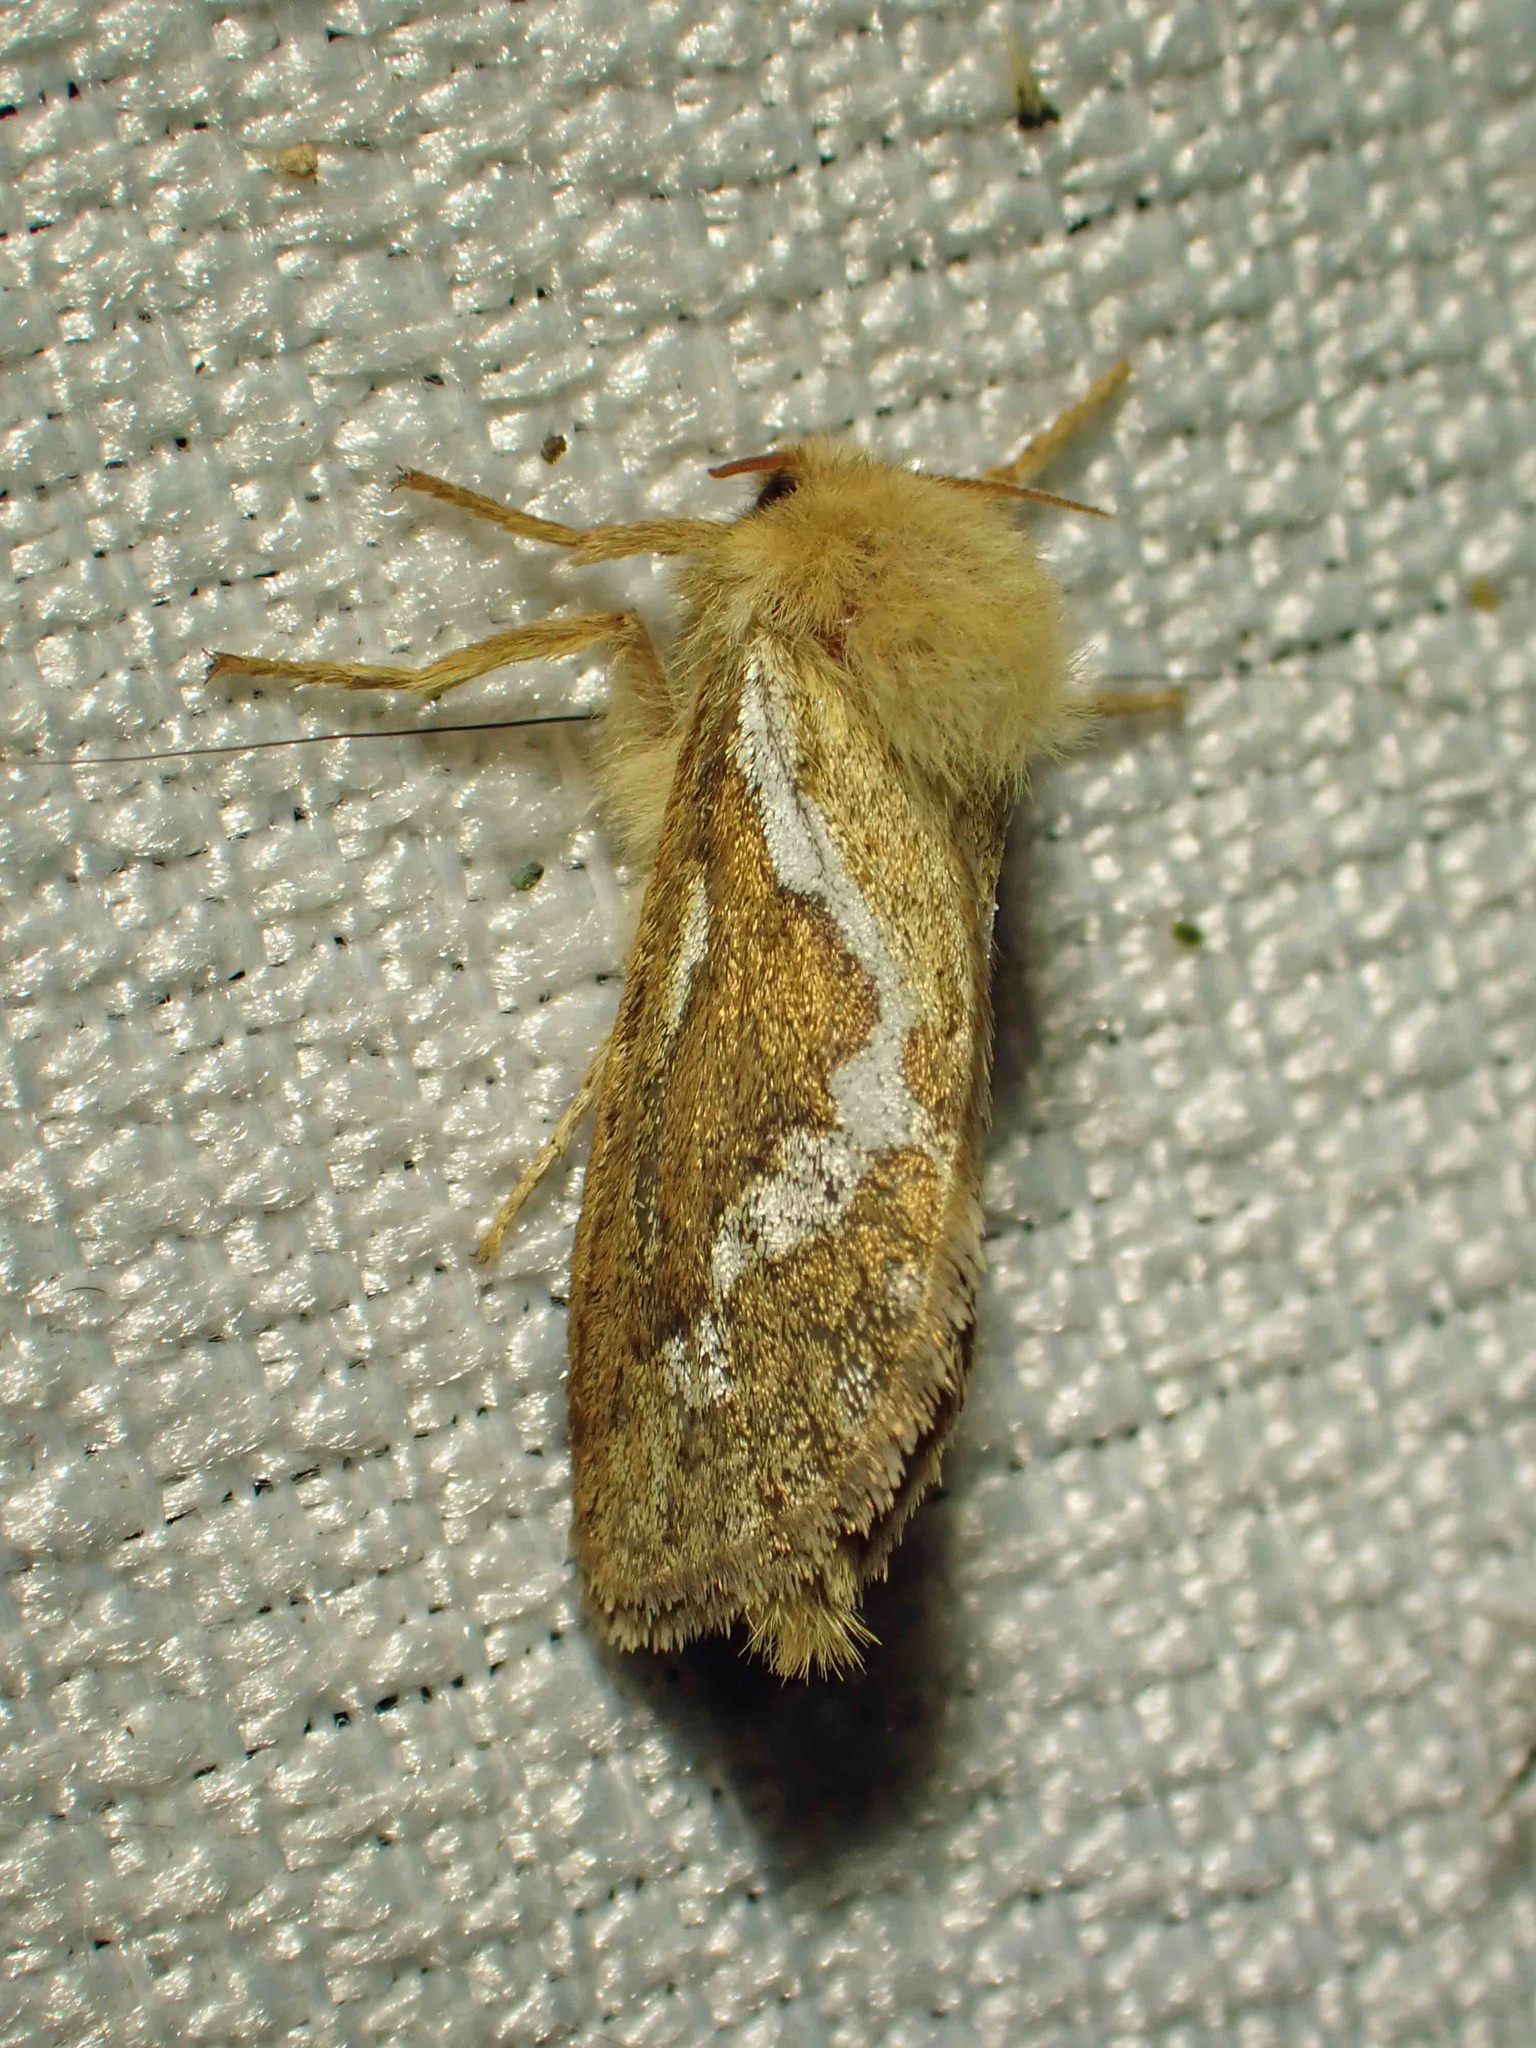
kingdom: Animalia
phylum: Arthropoda
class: Insecta
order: Lepidoptera
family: Hepialidae
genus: Korscheltellus
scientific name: Korscheltellus lupulina
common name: Common swift
